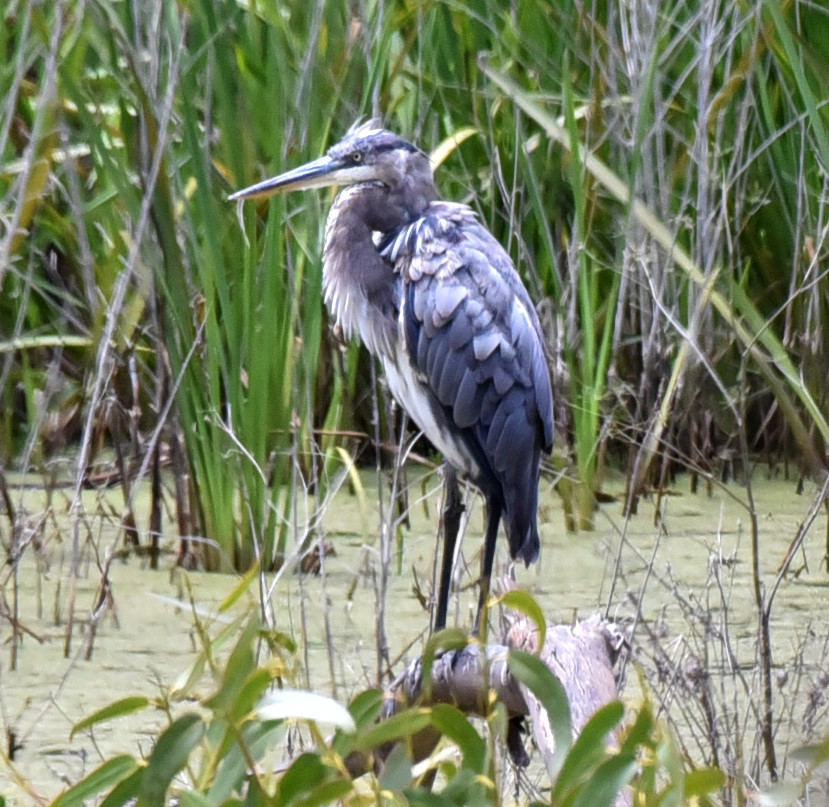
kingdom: Animalia
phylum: Chordata
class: Aves
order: Pelecaniformes
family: Ardeidae
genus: Ardea
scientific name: Ardea herodias
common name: Great blue heron
